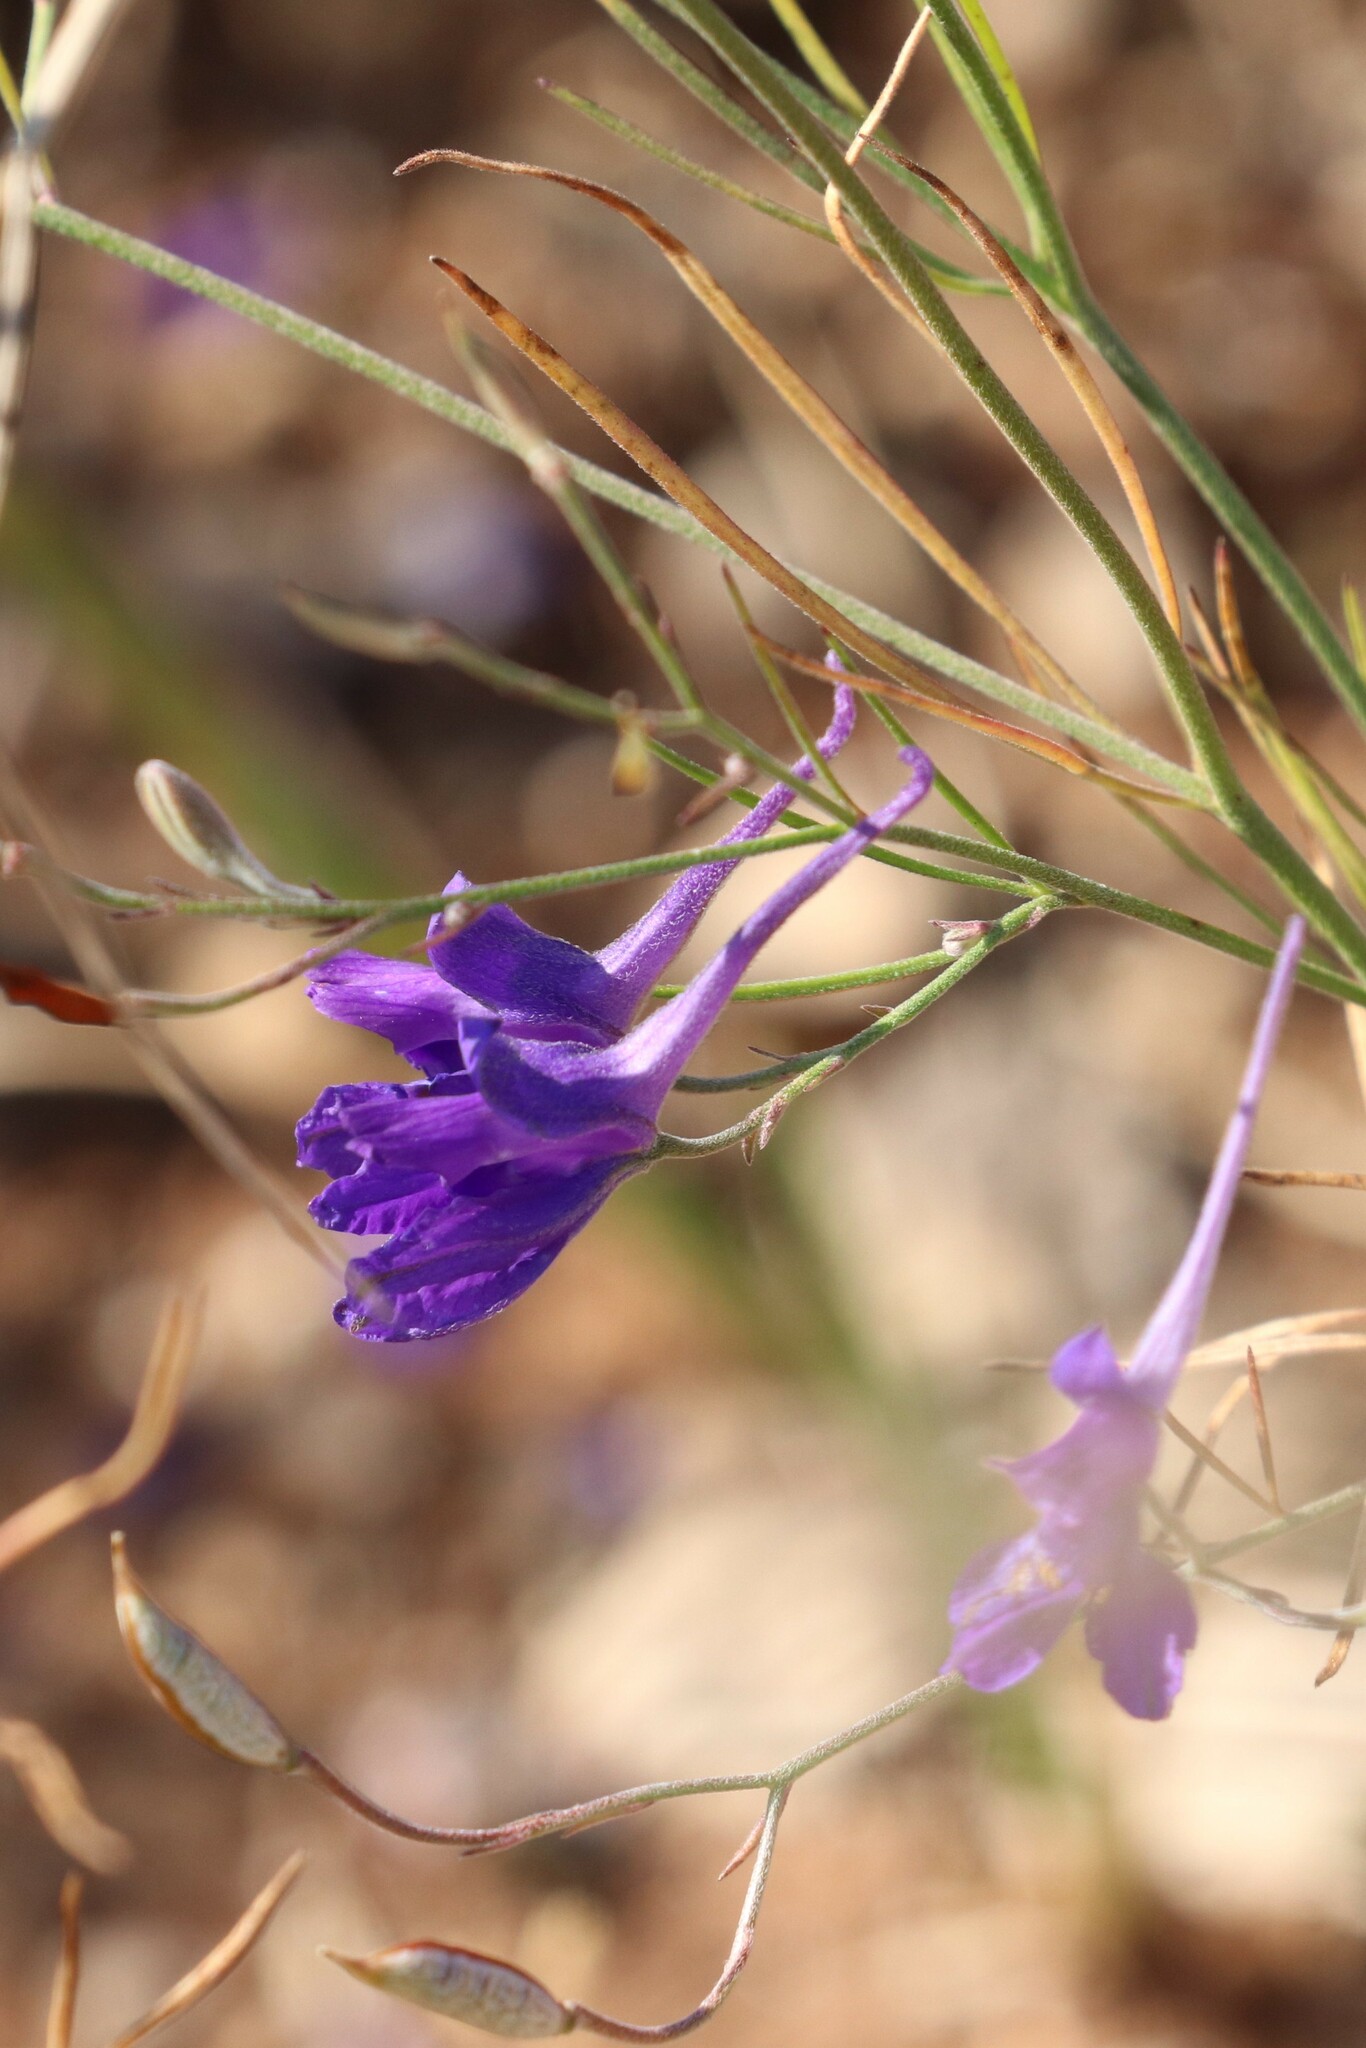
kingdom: Plantae
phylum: Tracheophyta
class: Magnoliopsida
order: Ranunculales
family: Ranunculaceae
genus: Delphinium
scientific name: Delphinium consolida
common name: Branching larkspur
